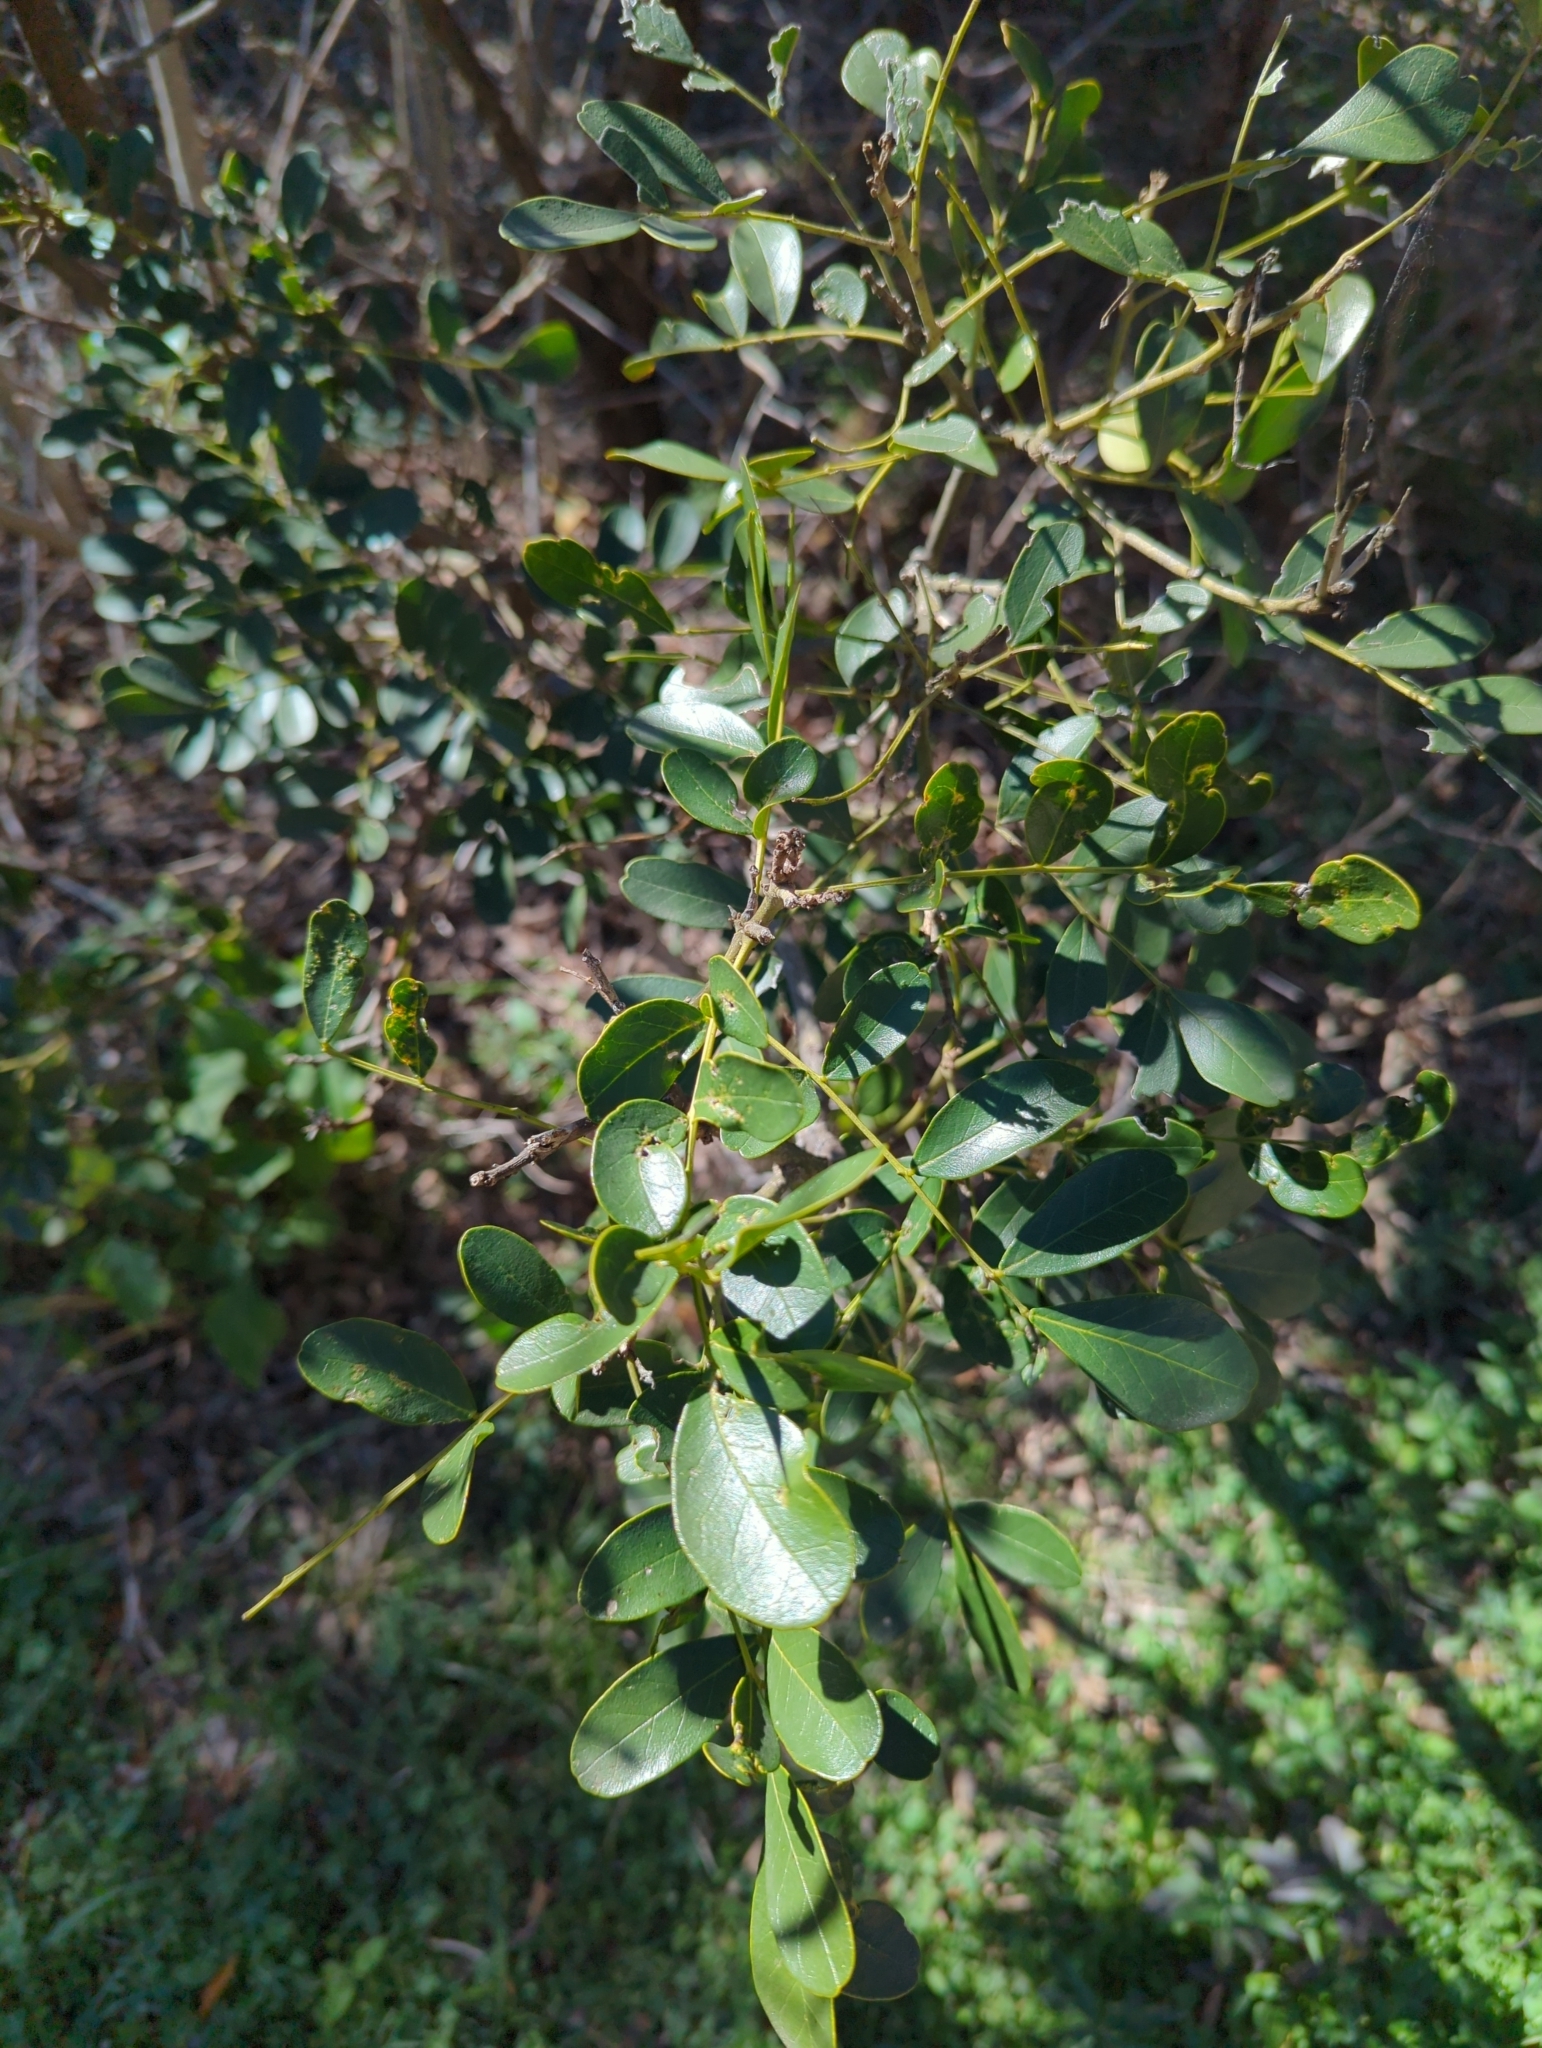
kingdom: Plantae
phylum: Tracheophyta
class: Magnoliopsida
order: Fabales
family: Fabaceae
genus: Dermatophyllum
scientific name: Dermatophyllum secundiflorum
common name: Texas-mountain-laurel
